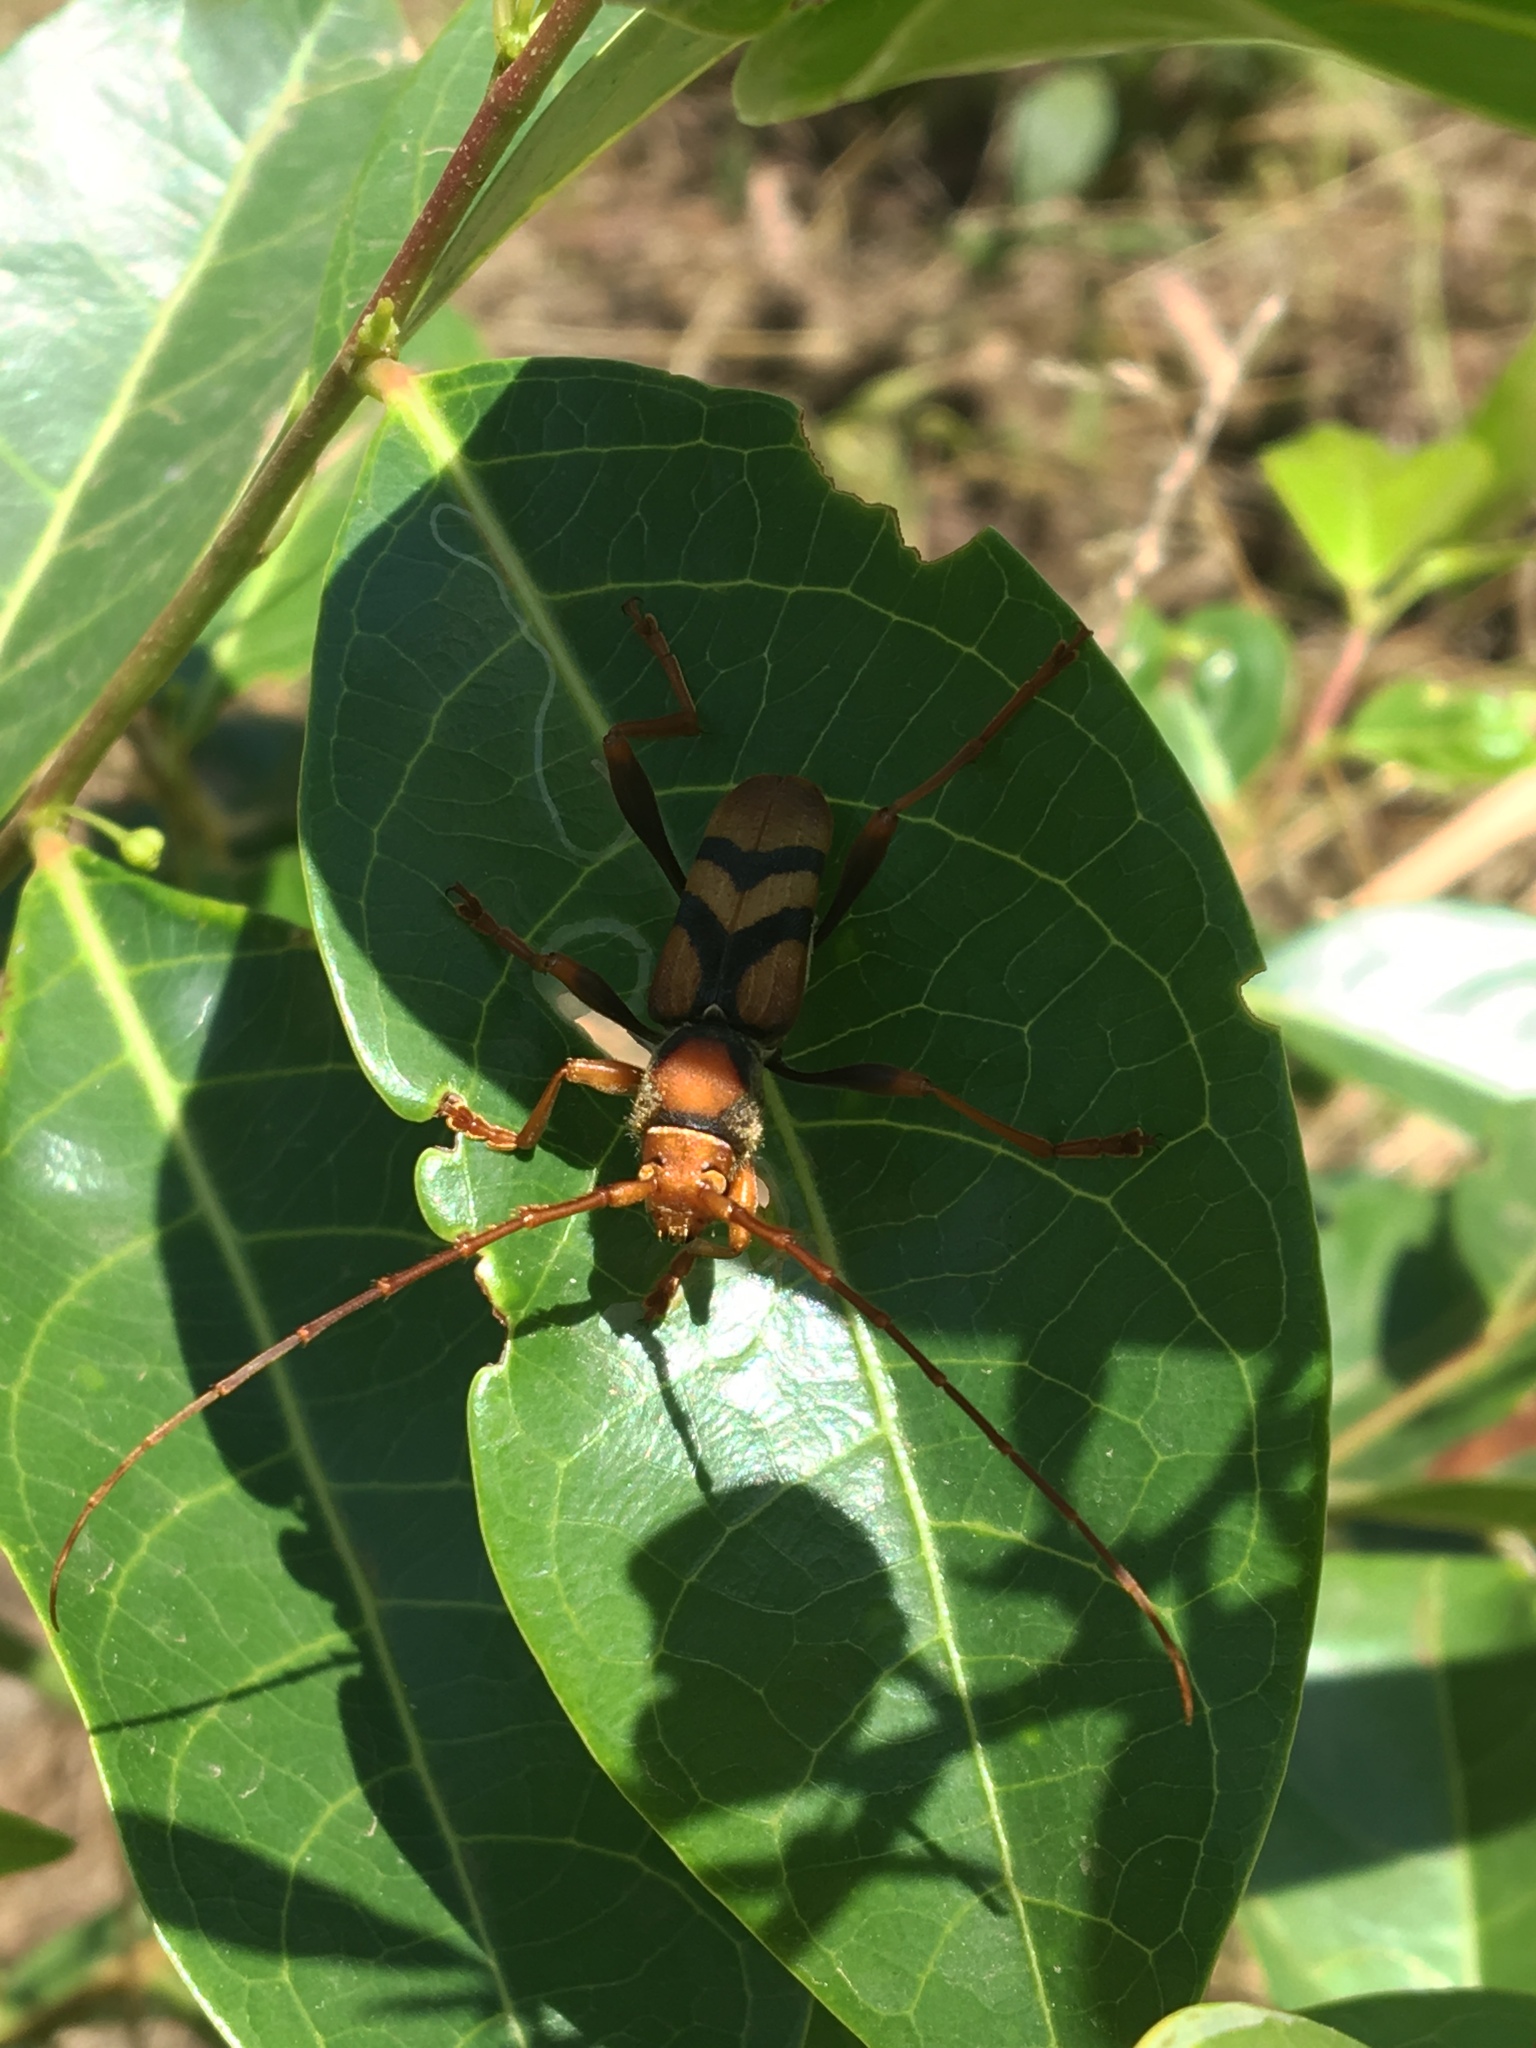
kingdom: Animalia
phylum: Arthropoda
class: Insecta
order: Coleoptera
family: Cerambycidae
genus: Aridaeus
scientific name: Aridaeus thoracicus
